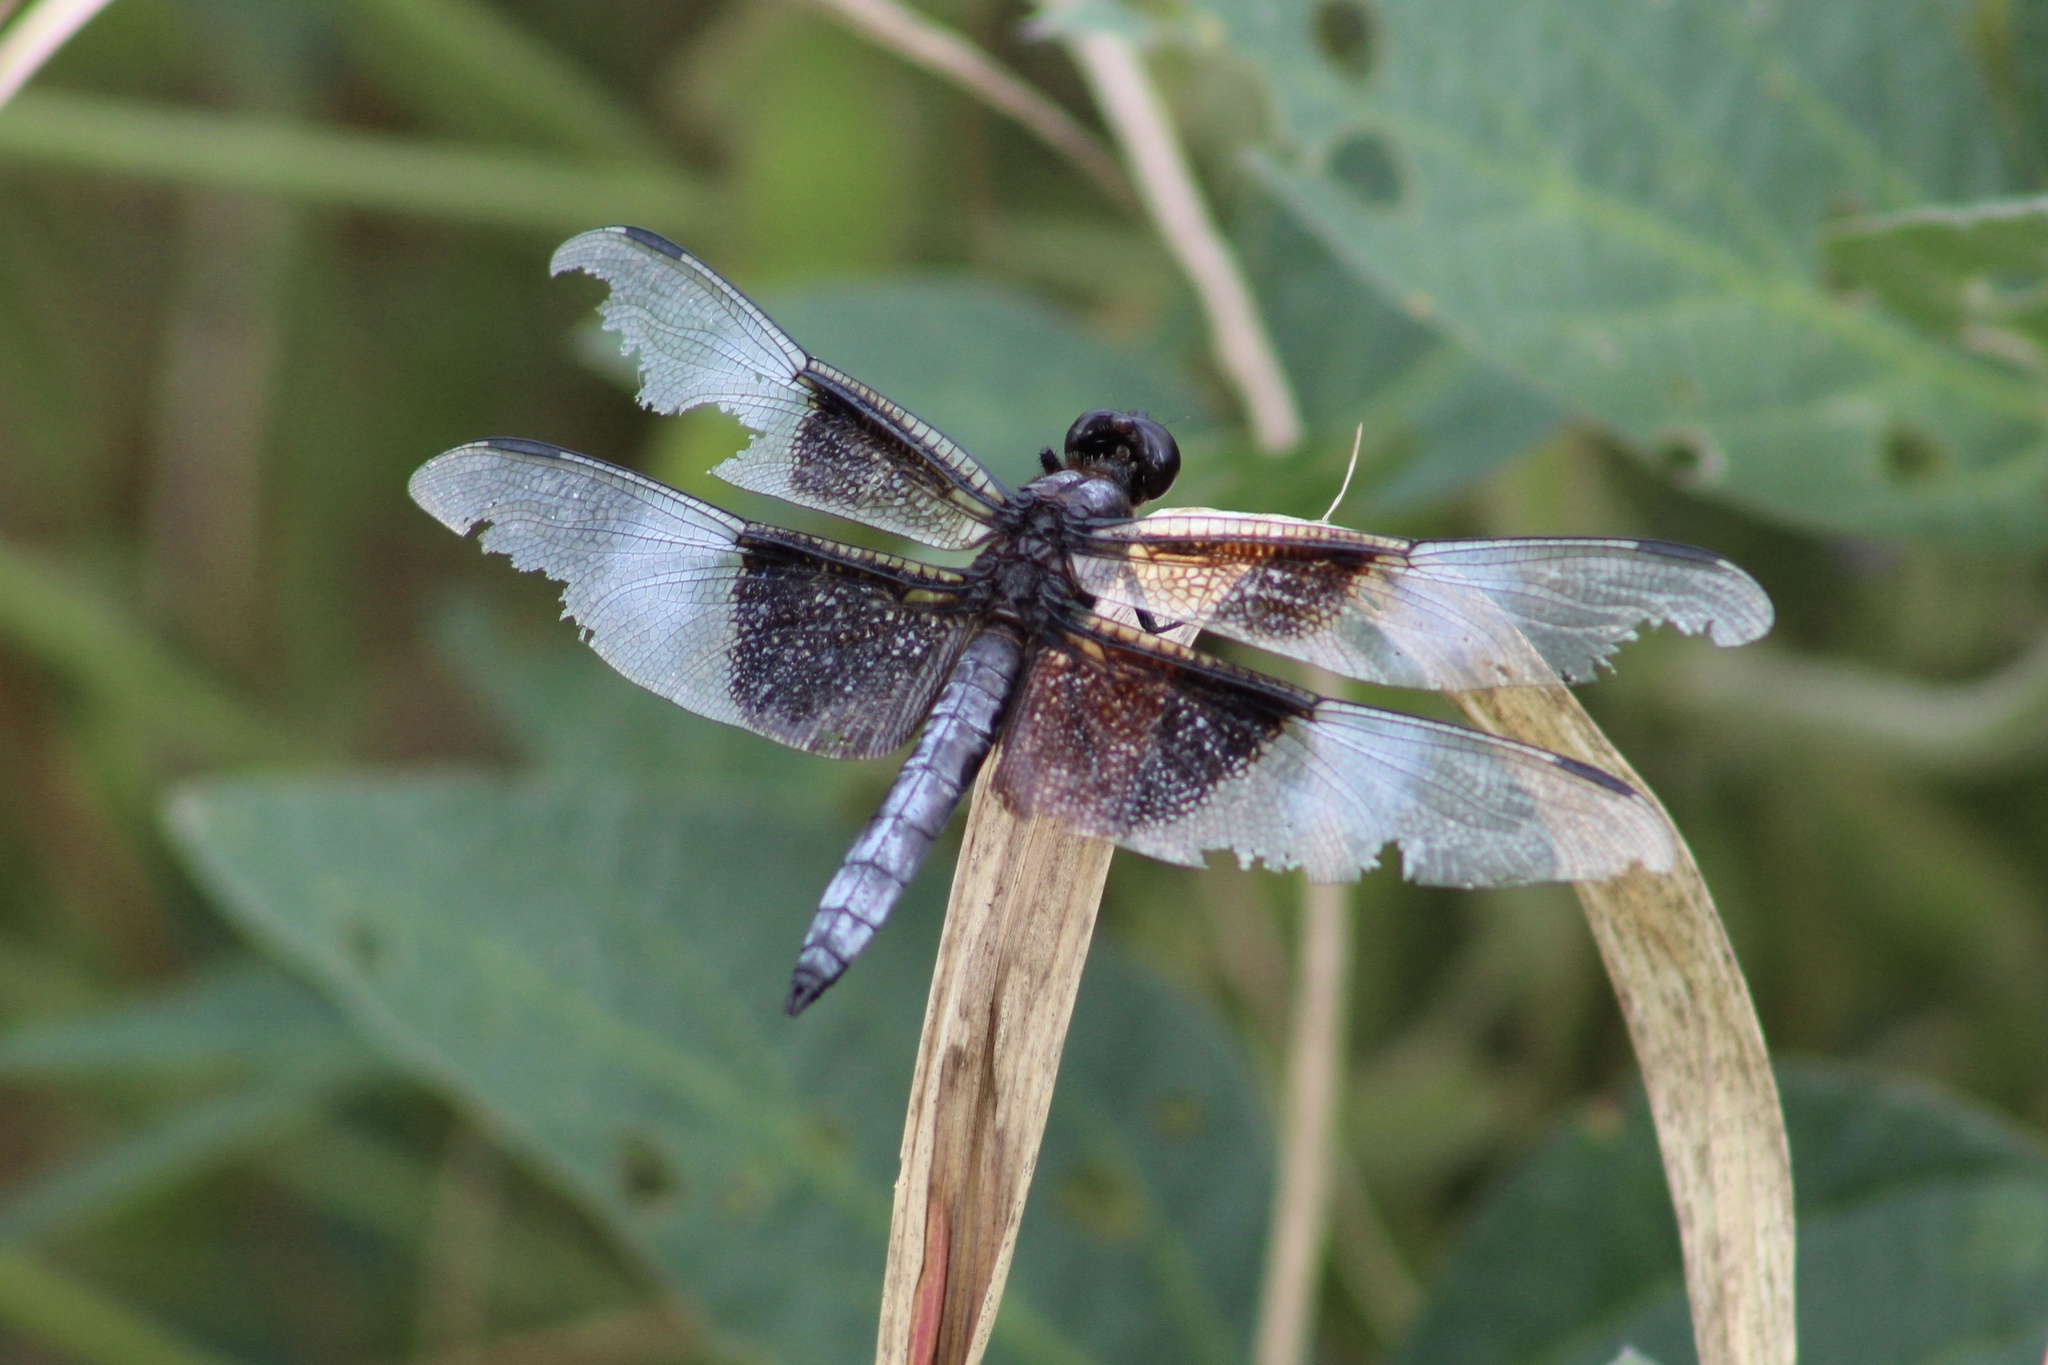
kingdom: Animalia
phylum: Arthropoda
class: Insecta
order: Odonata
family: Libellulidae
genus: Libellula
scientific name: Libellula luctuosa
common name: Widow skimmer
